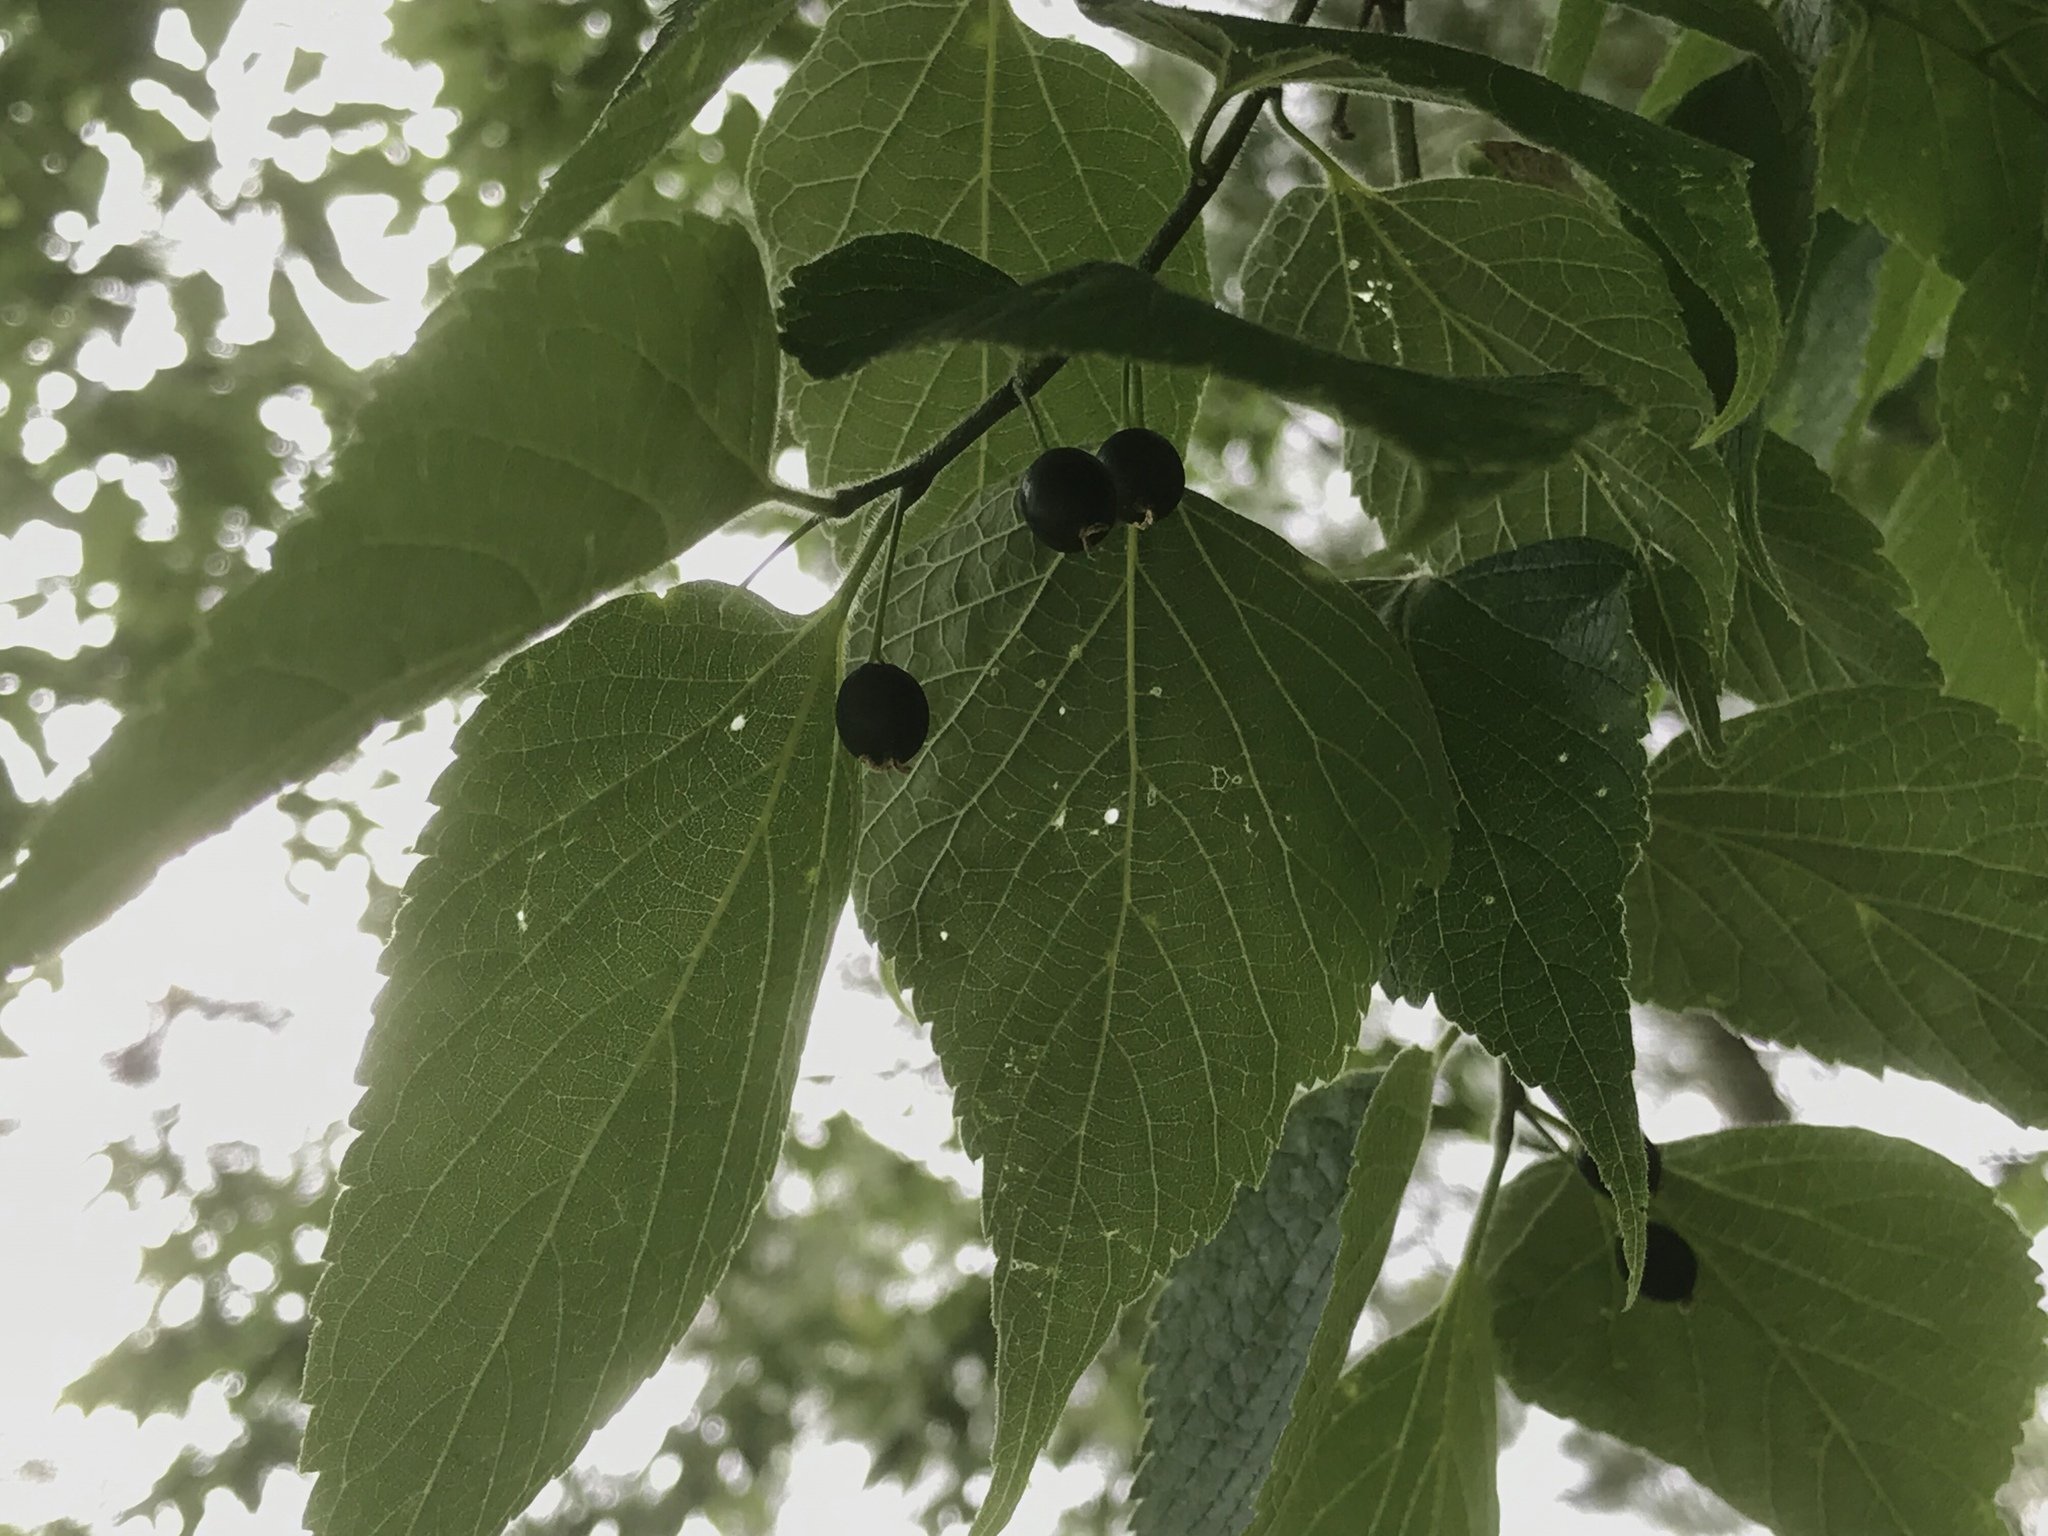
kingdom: Plantae
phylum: Tracheophyta
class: Magnoliopsida
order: Rosales
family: Cannabaceae
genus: Celtis
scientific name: Celtis occidentalis
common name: Common hackberry
